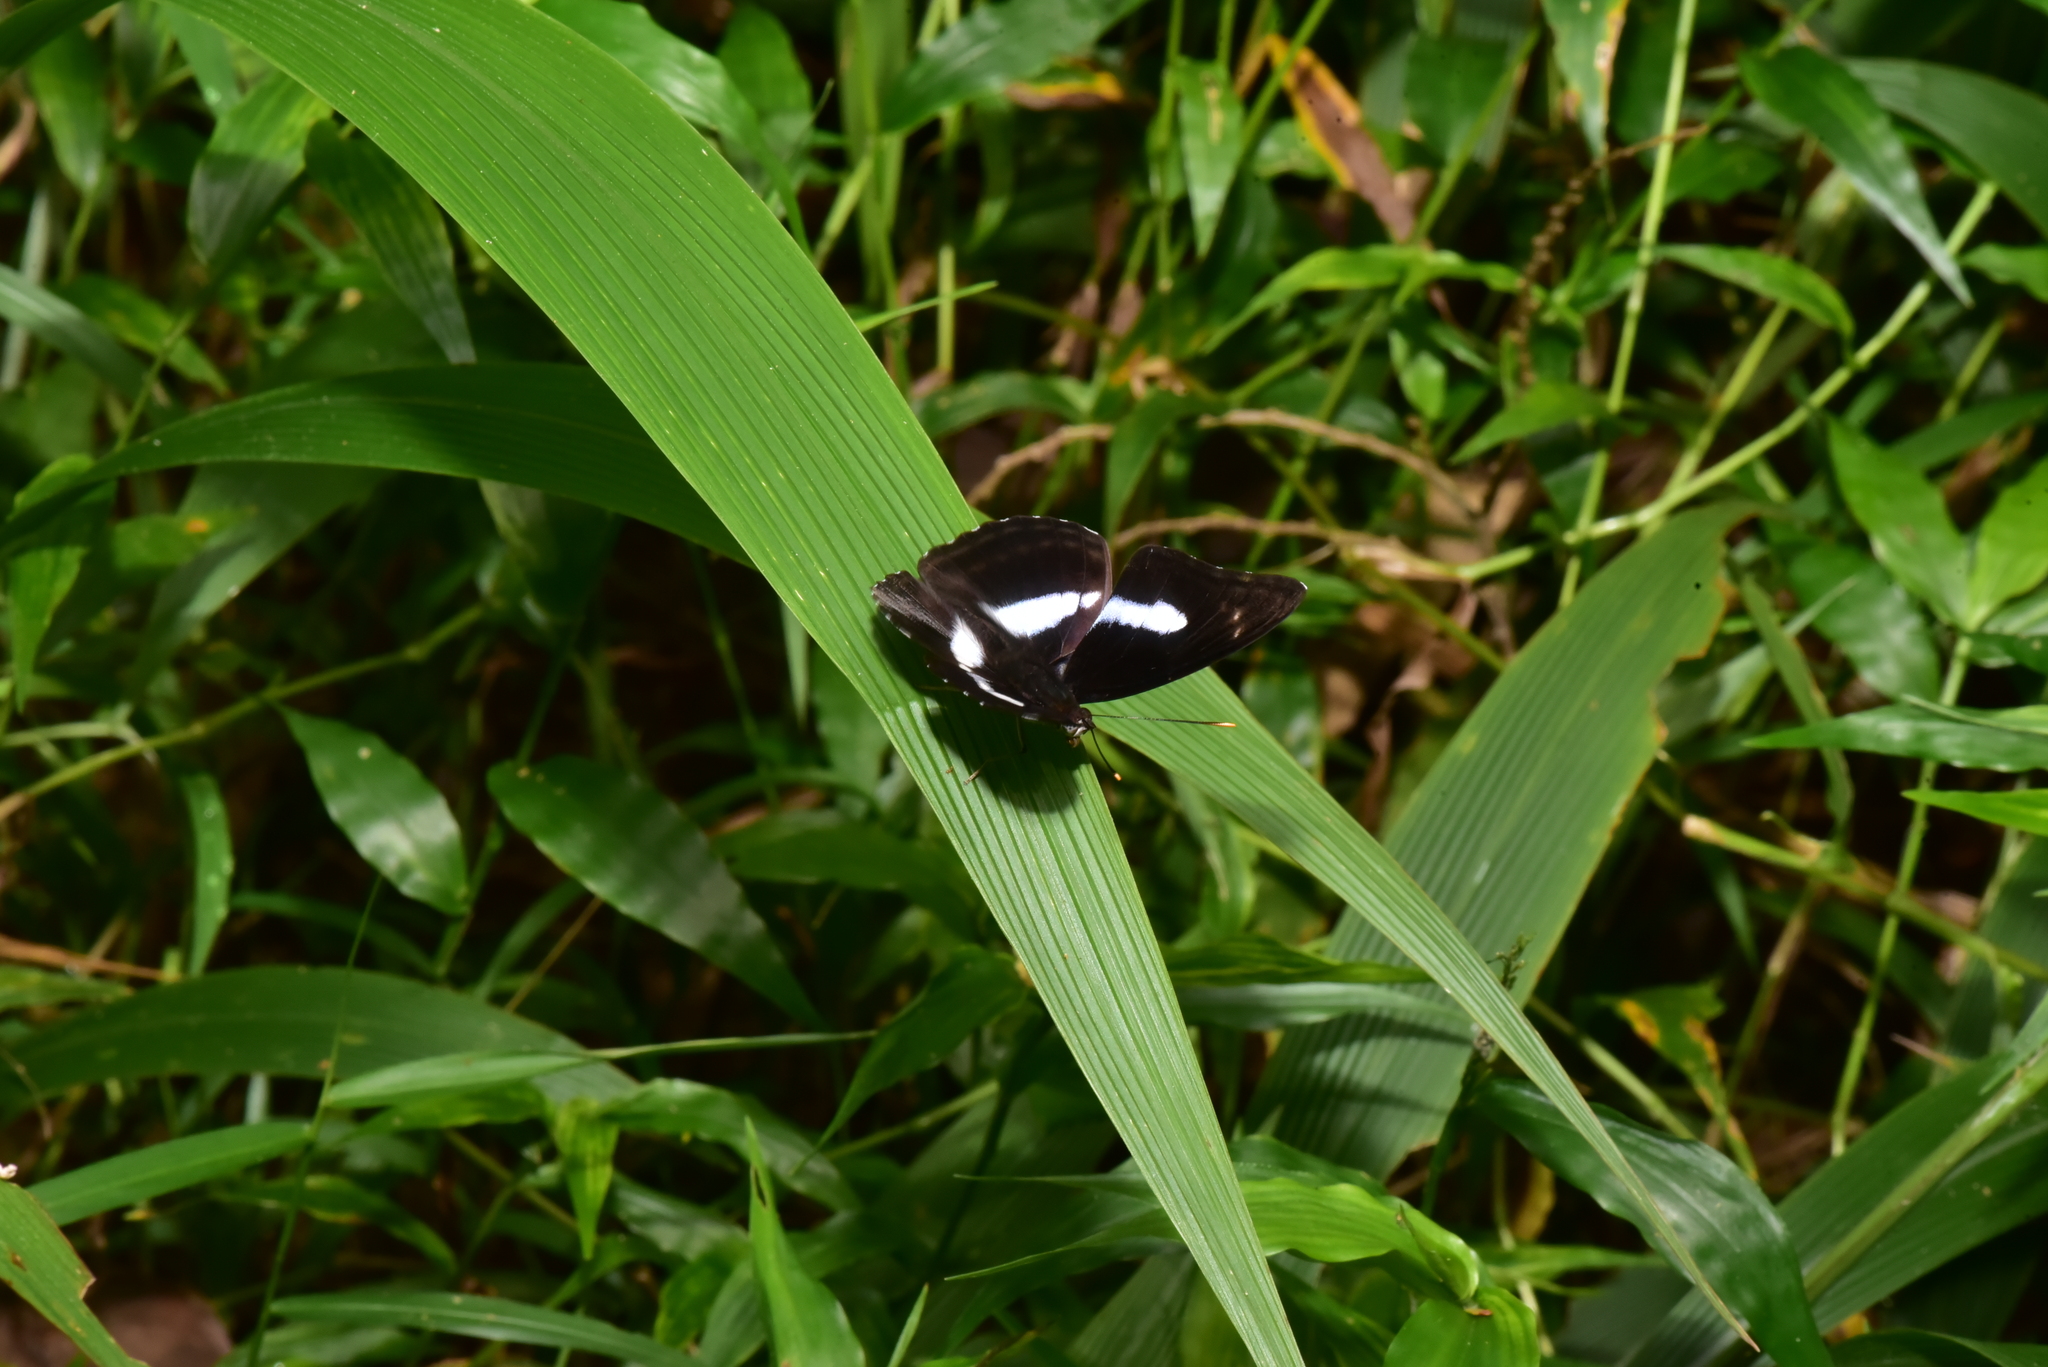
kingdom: Animalia
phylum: Arthropoda
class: Insecta
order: Lepidoptera
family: Nymphalidae
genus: Parathyma
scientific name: Parathyma selenophora
